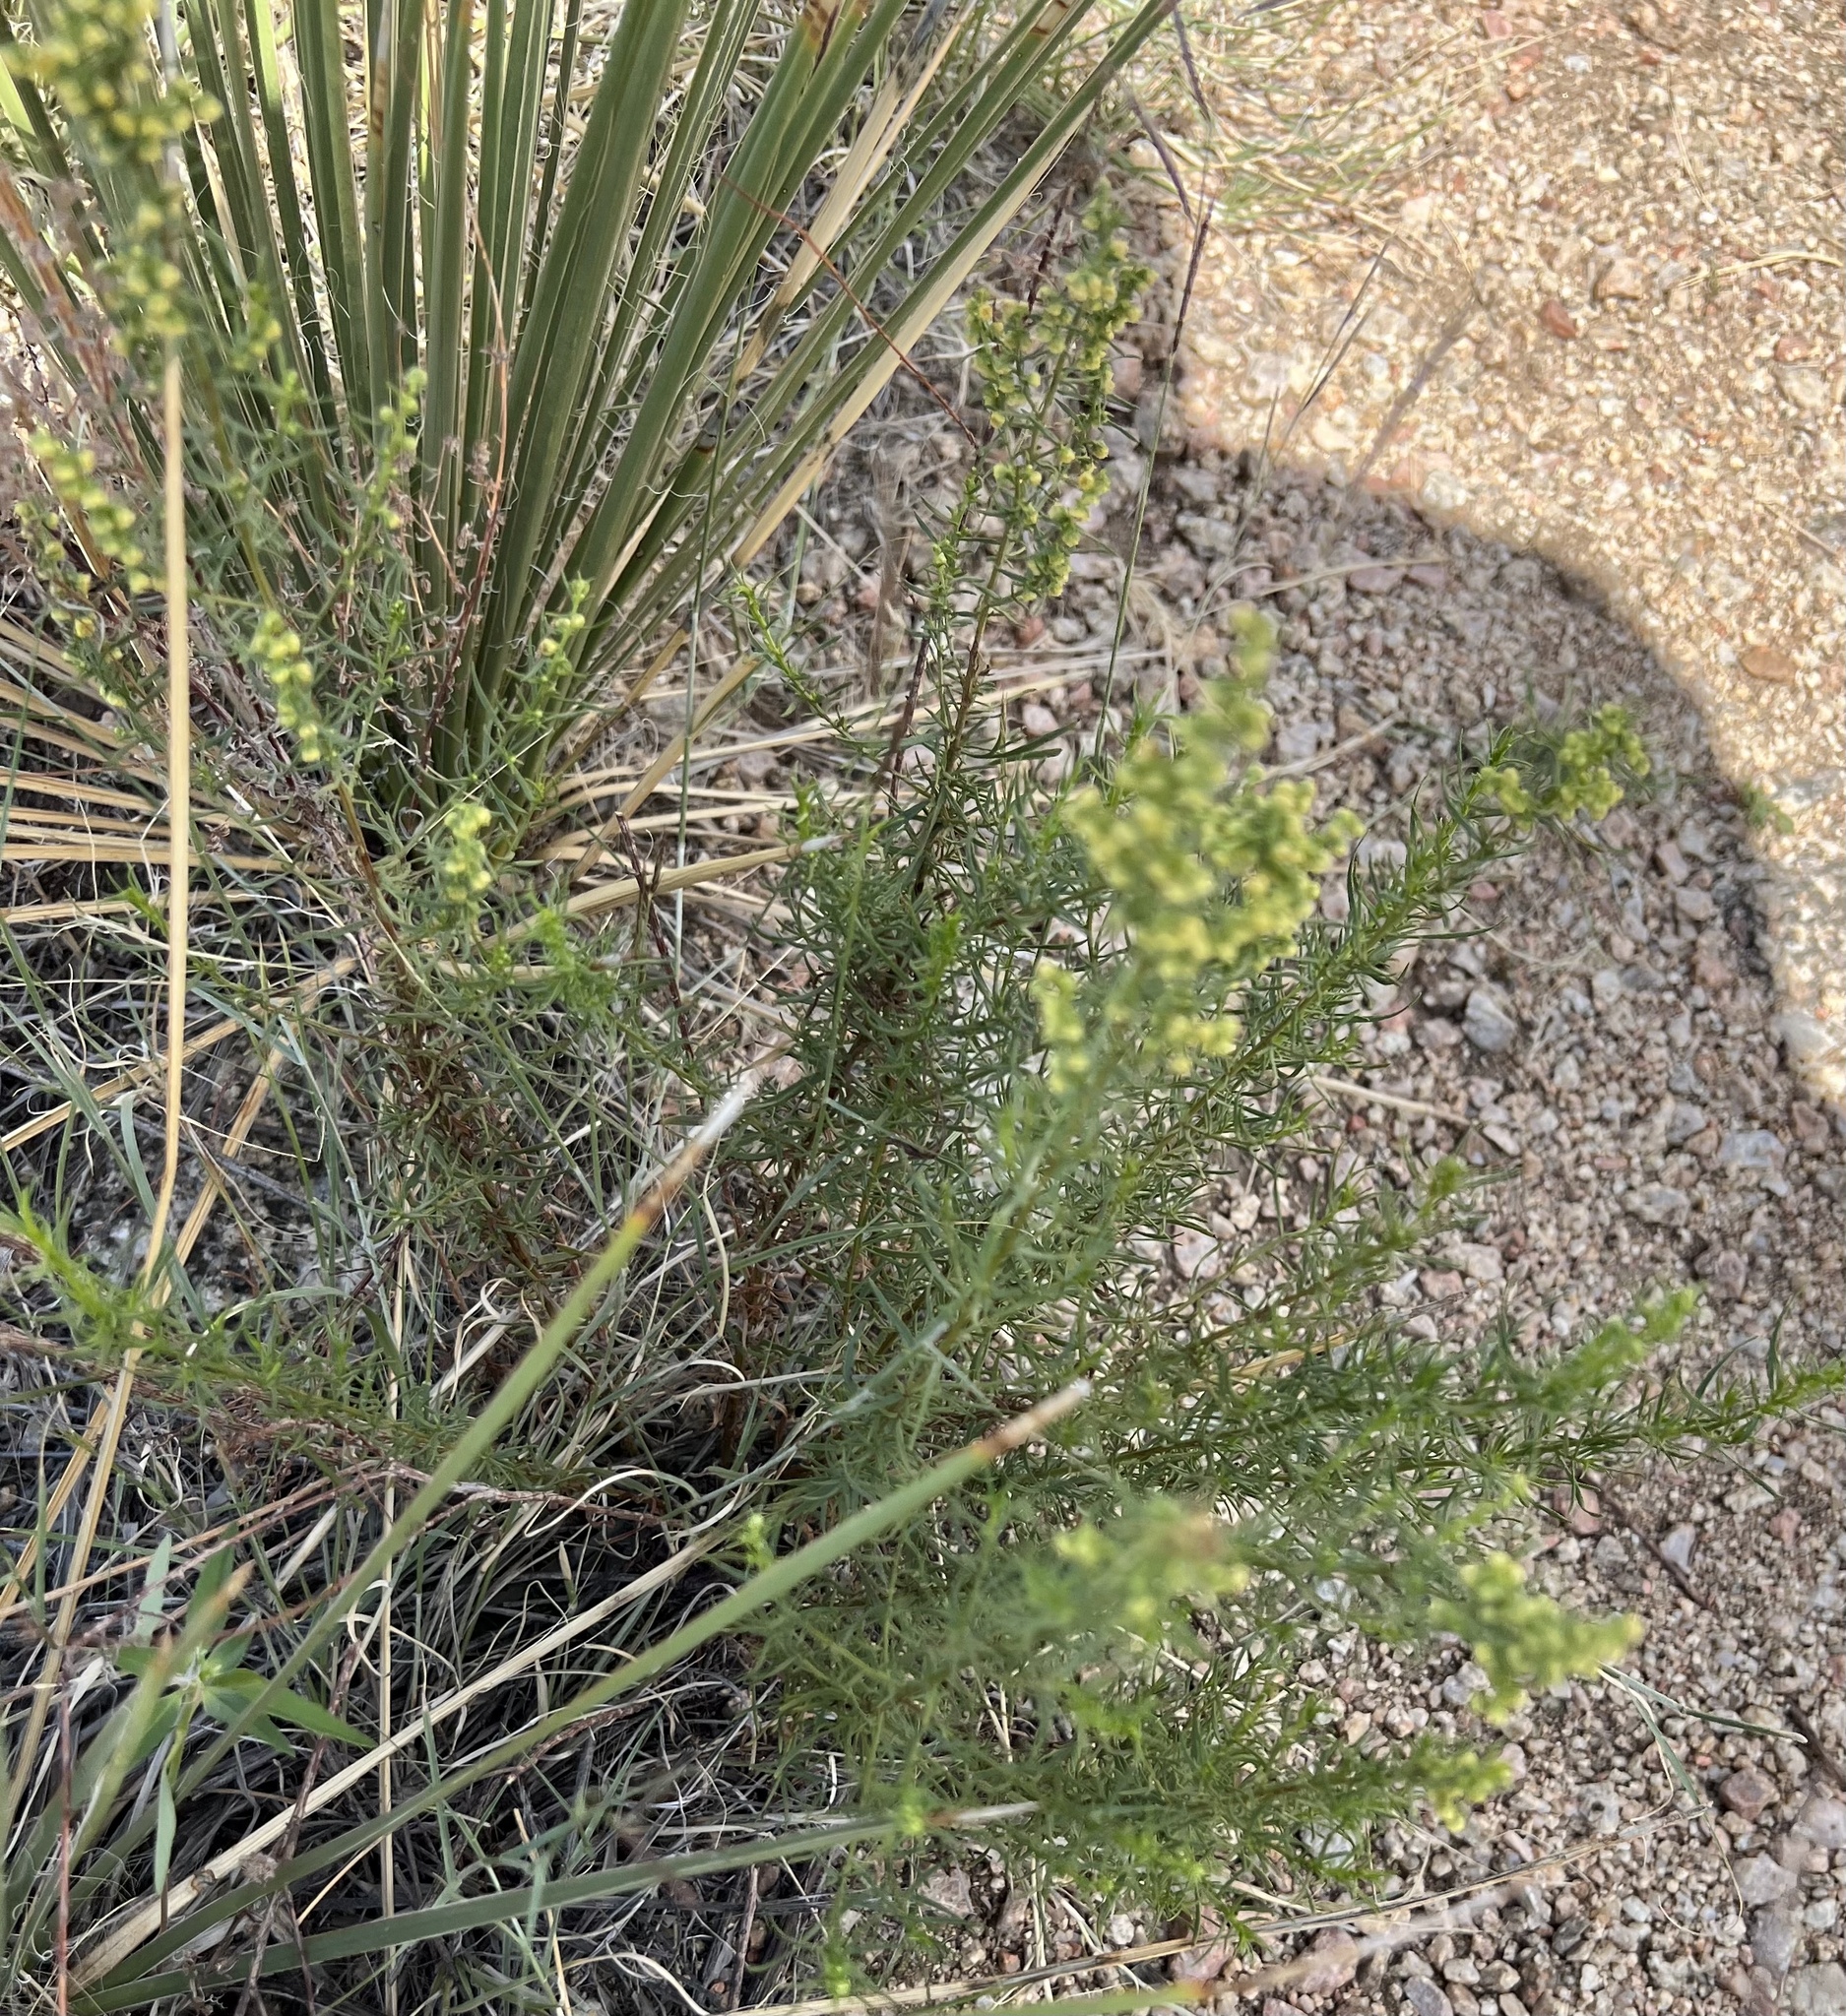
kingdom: Plantae
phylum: Tracheophyta
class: Magnoliopsida
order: Asterales
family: Asteraceae
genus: Artemisia
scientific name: Artemisia dracunculus
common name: Tarragon
